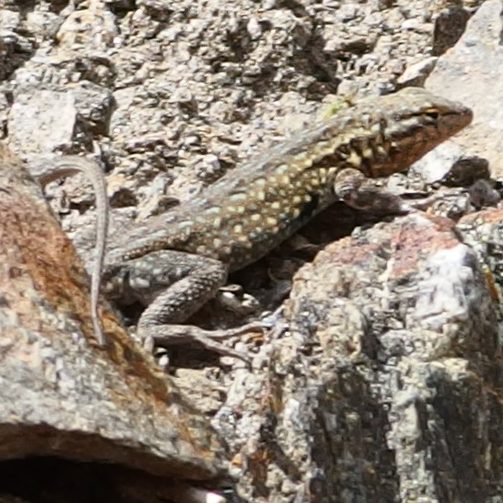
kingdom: Animalia
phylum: Chordata
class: Squamata
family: Phrynosomatidae
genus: Uta
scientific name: Uta stansburiana
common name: Side-blotched lizard
